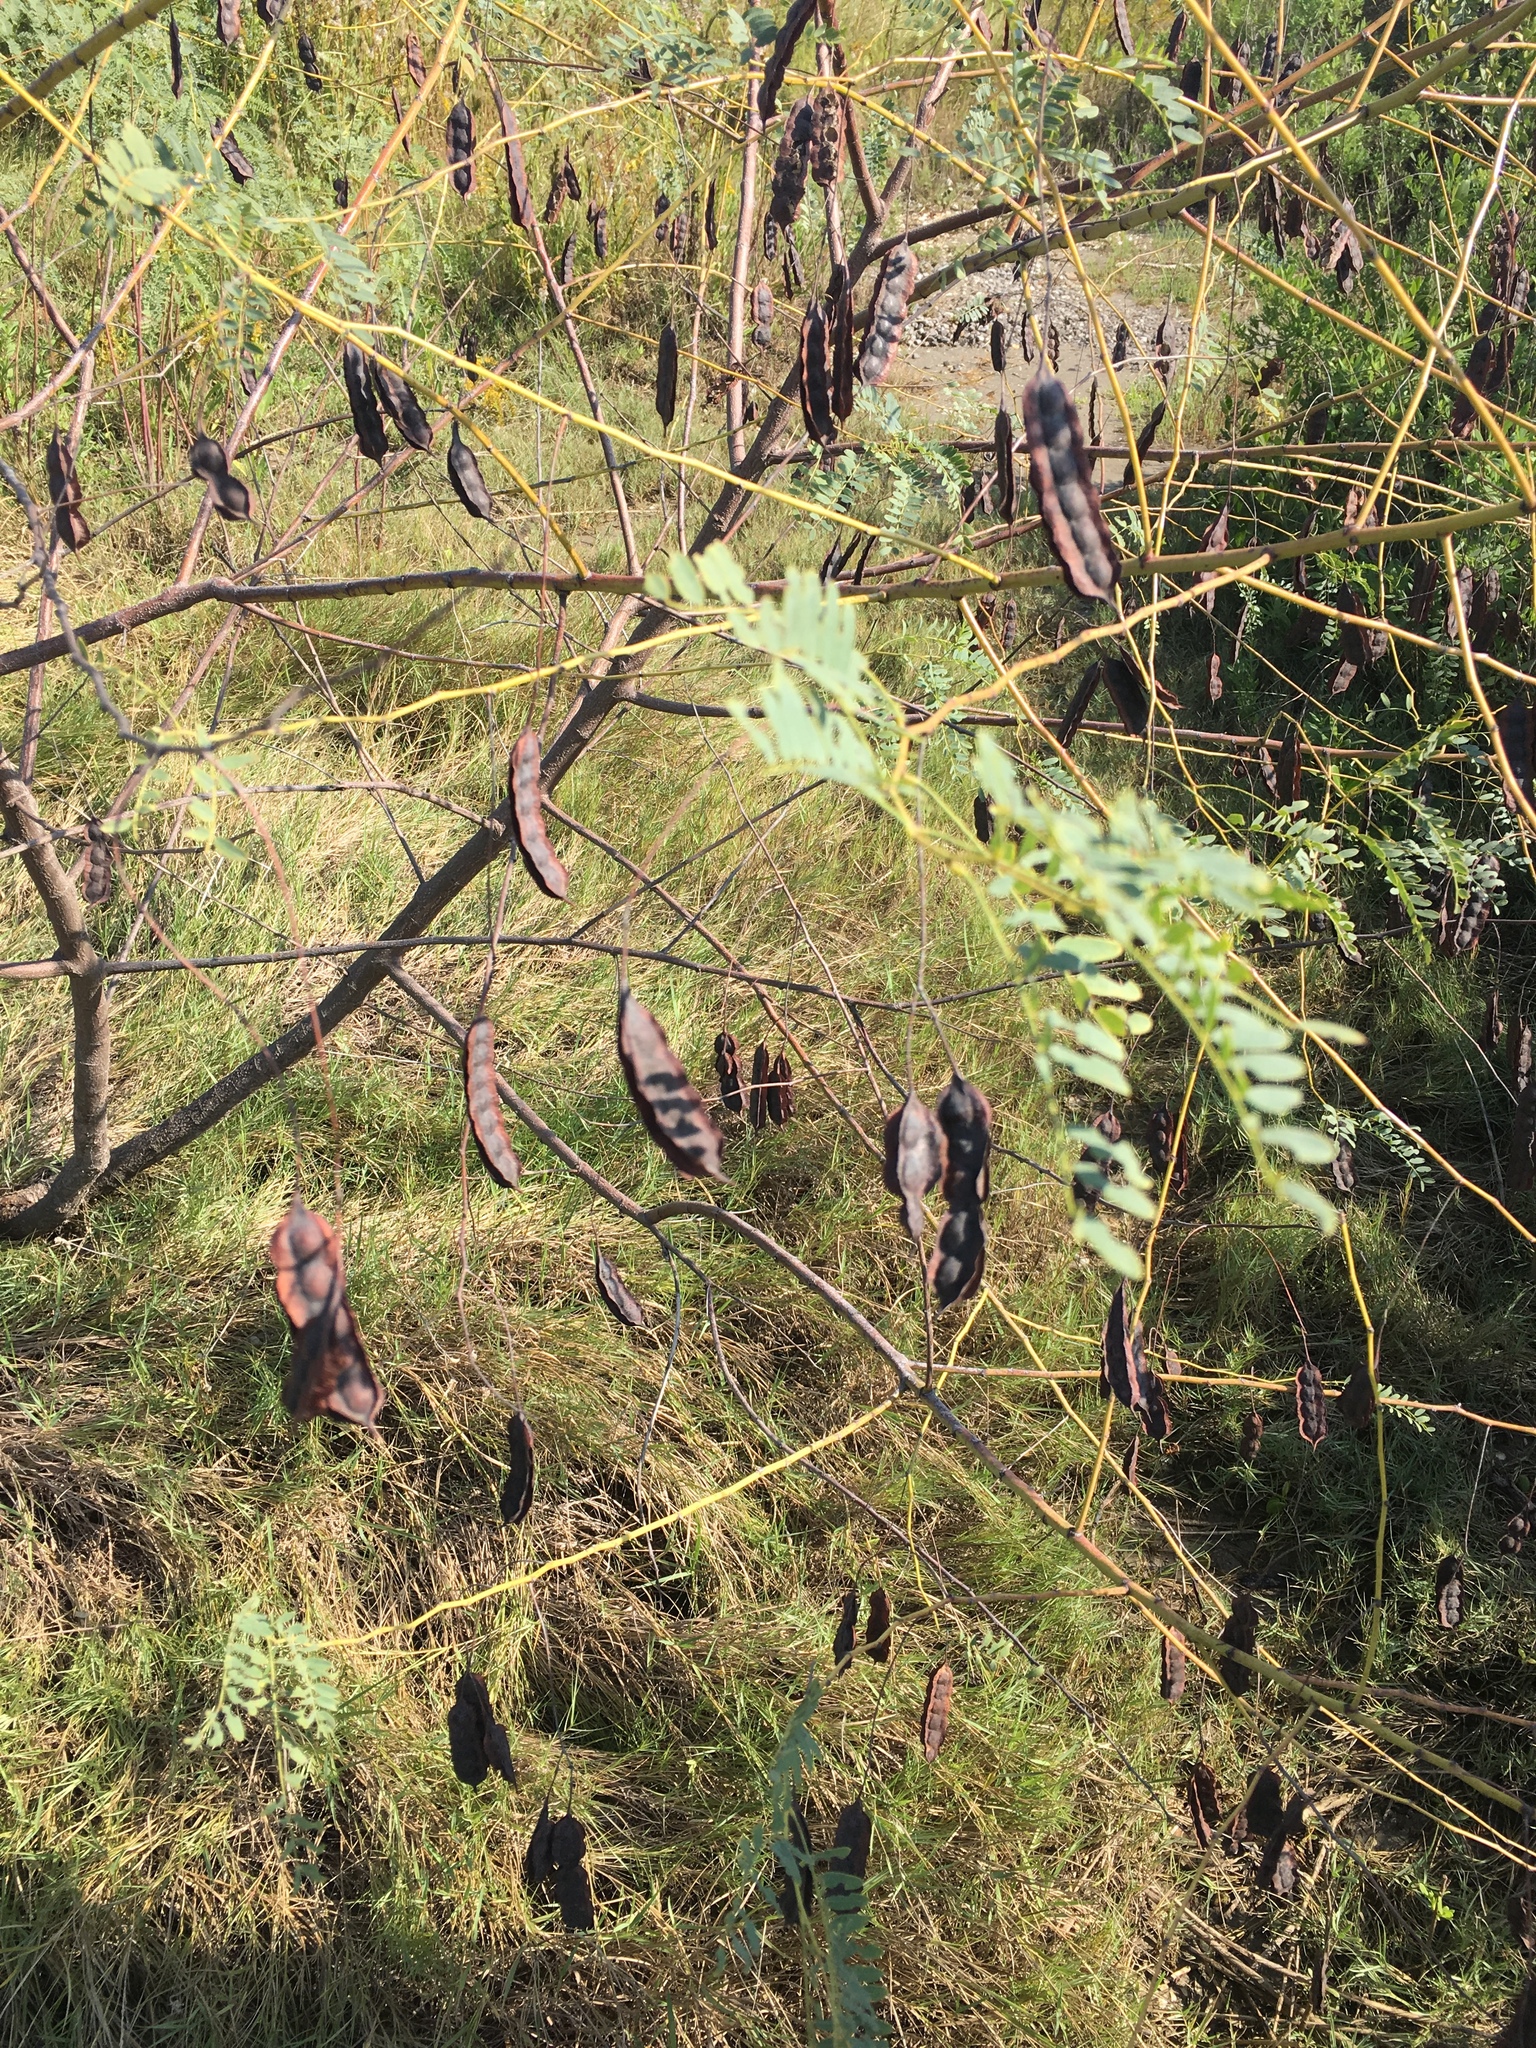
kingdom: Plantae
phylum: Tracheophyta
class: Magnoliopsida
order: Fabales
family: Fabaceae
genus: Sesbania
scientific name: Sesbania drummondii
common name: Poison-bean
